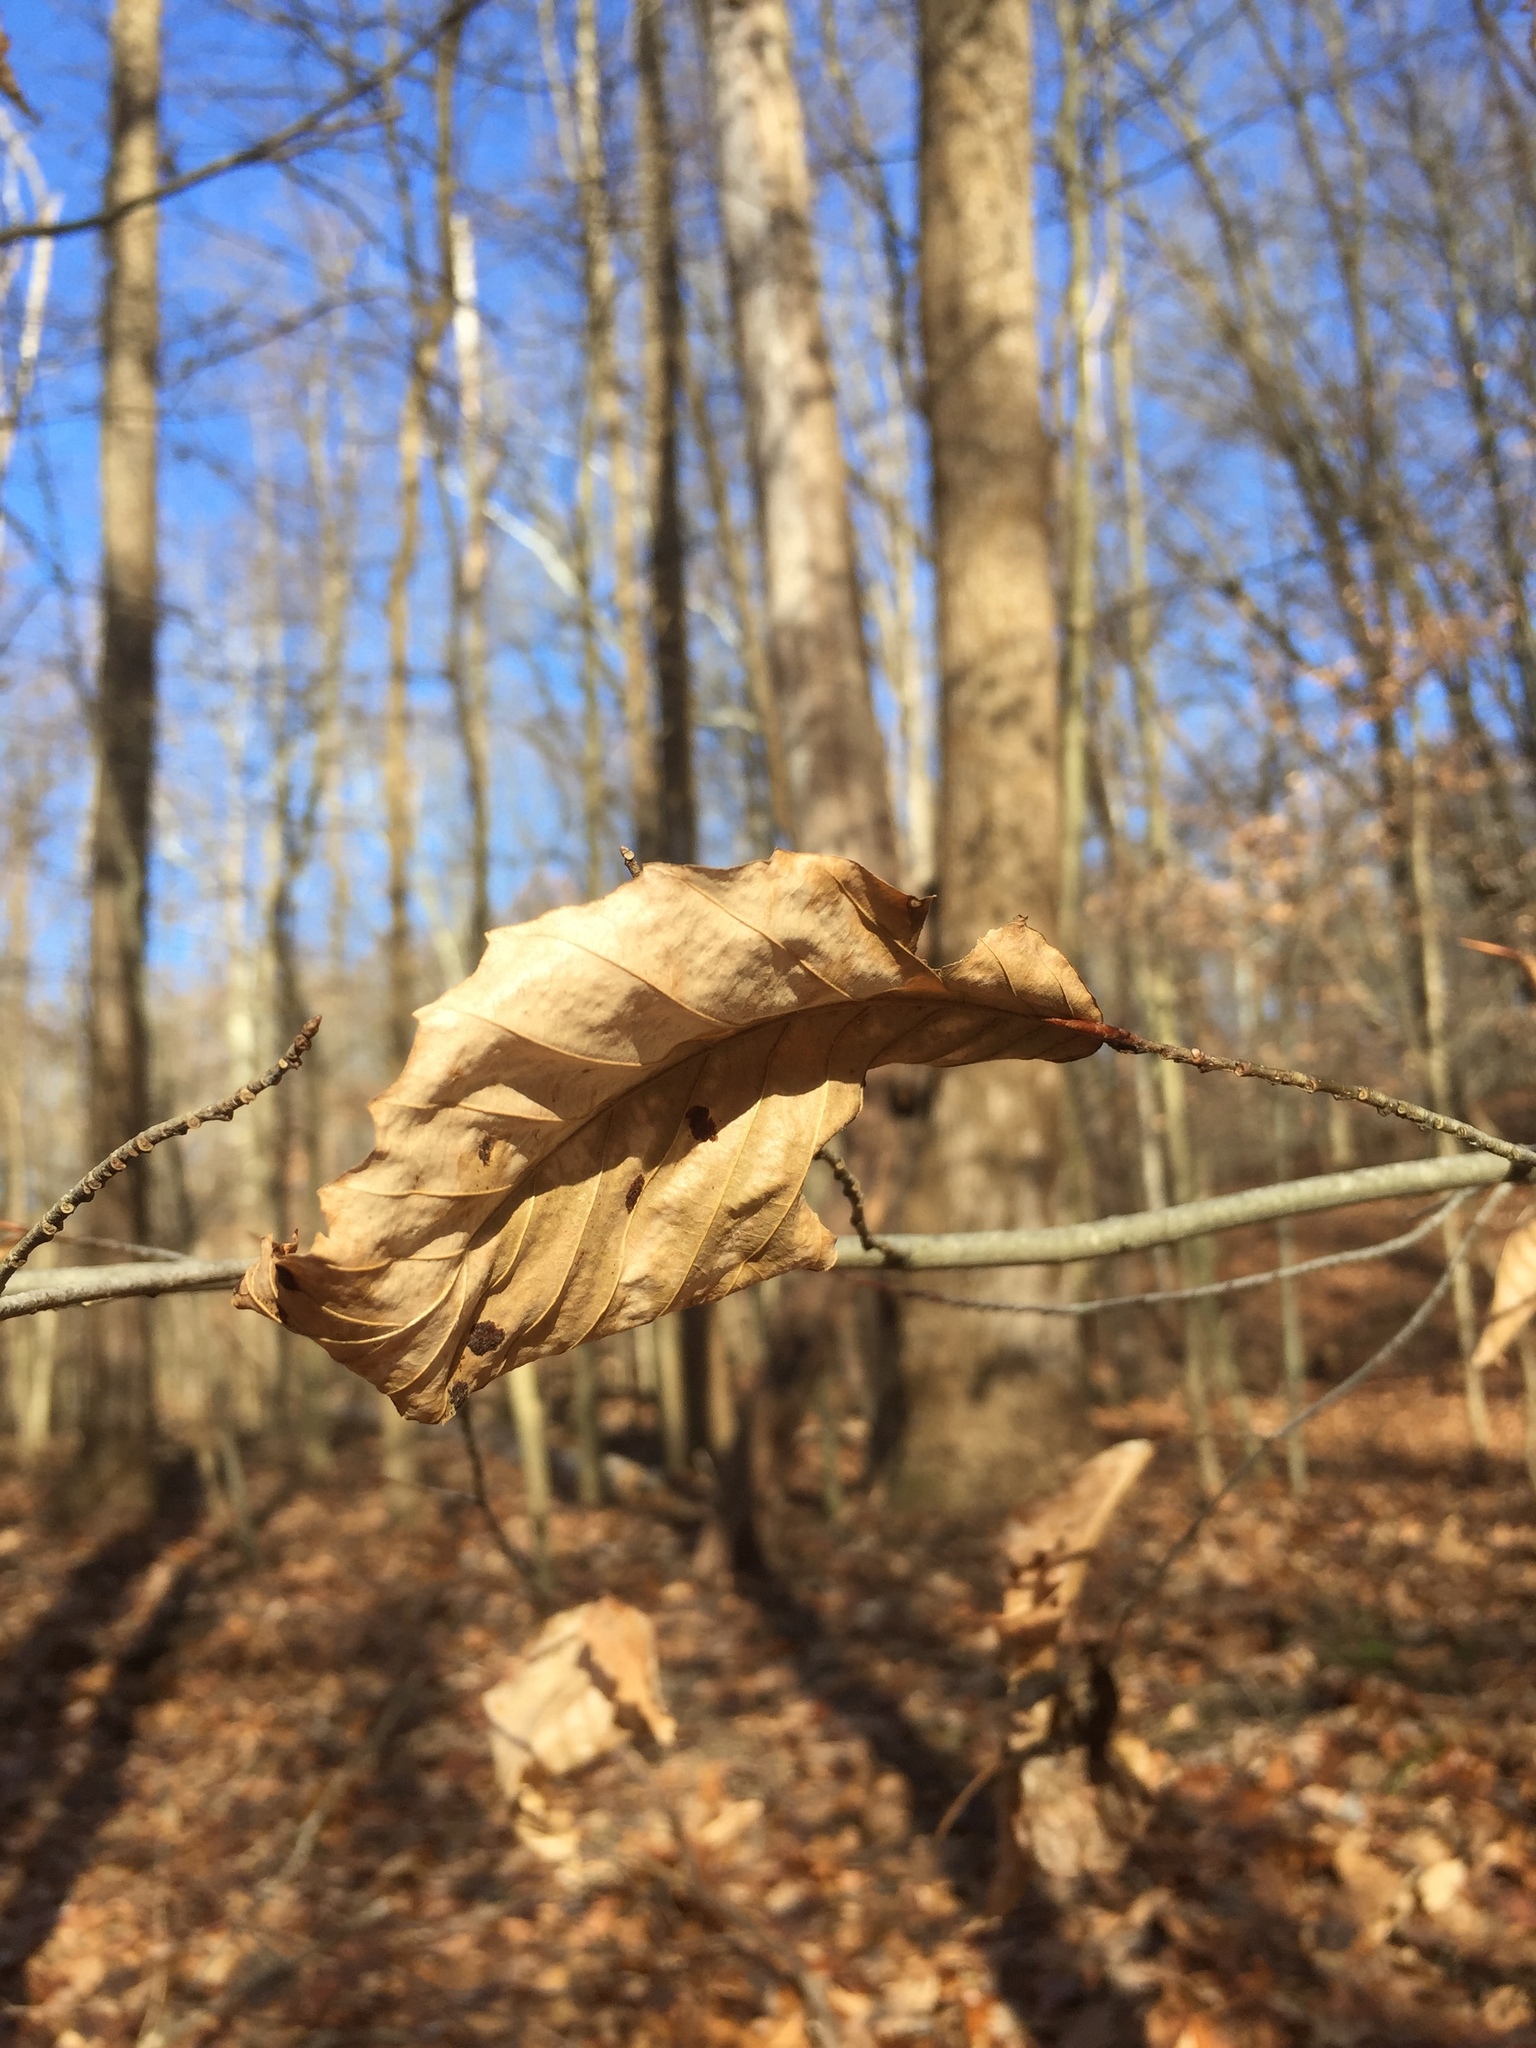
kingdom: Plantae
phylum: Tracheophyta
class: Magnoliopsida
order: Fagales
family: Fagaceae
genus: Fagus
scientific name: Fagus grandifolia
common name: American beech
